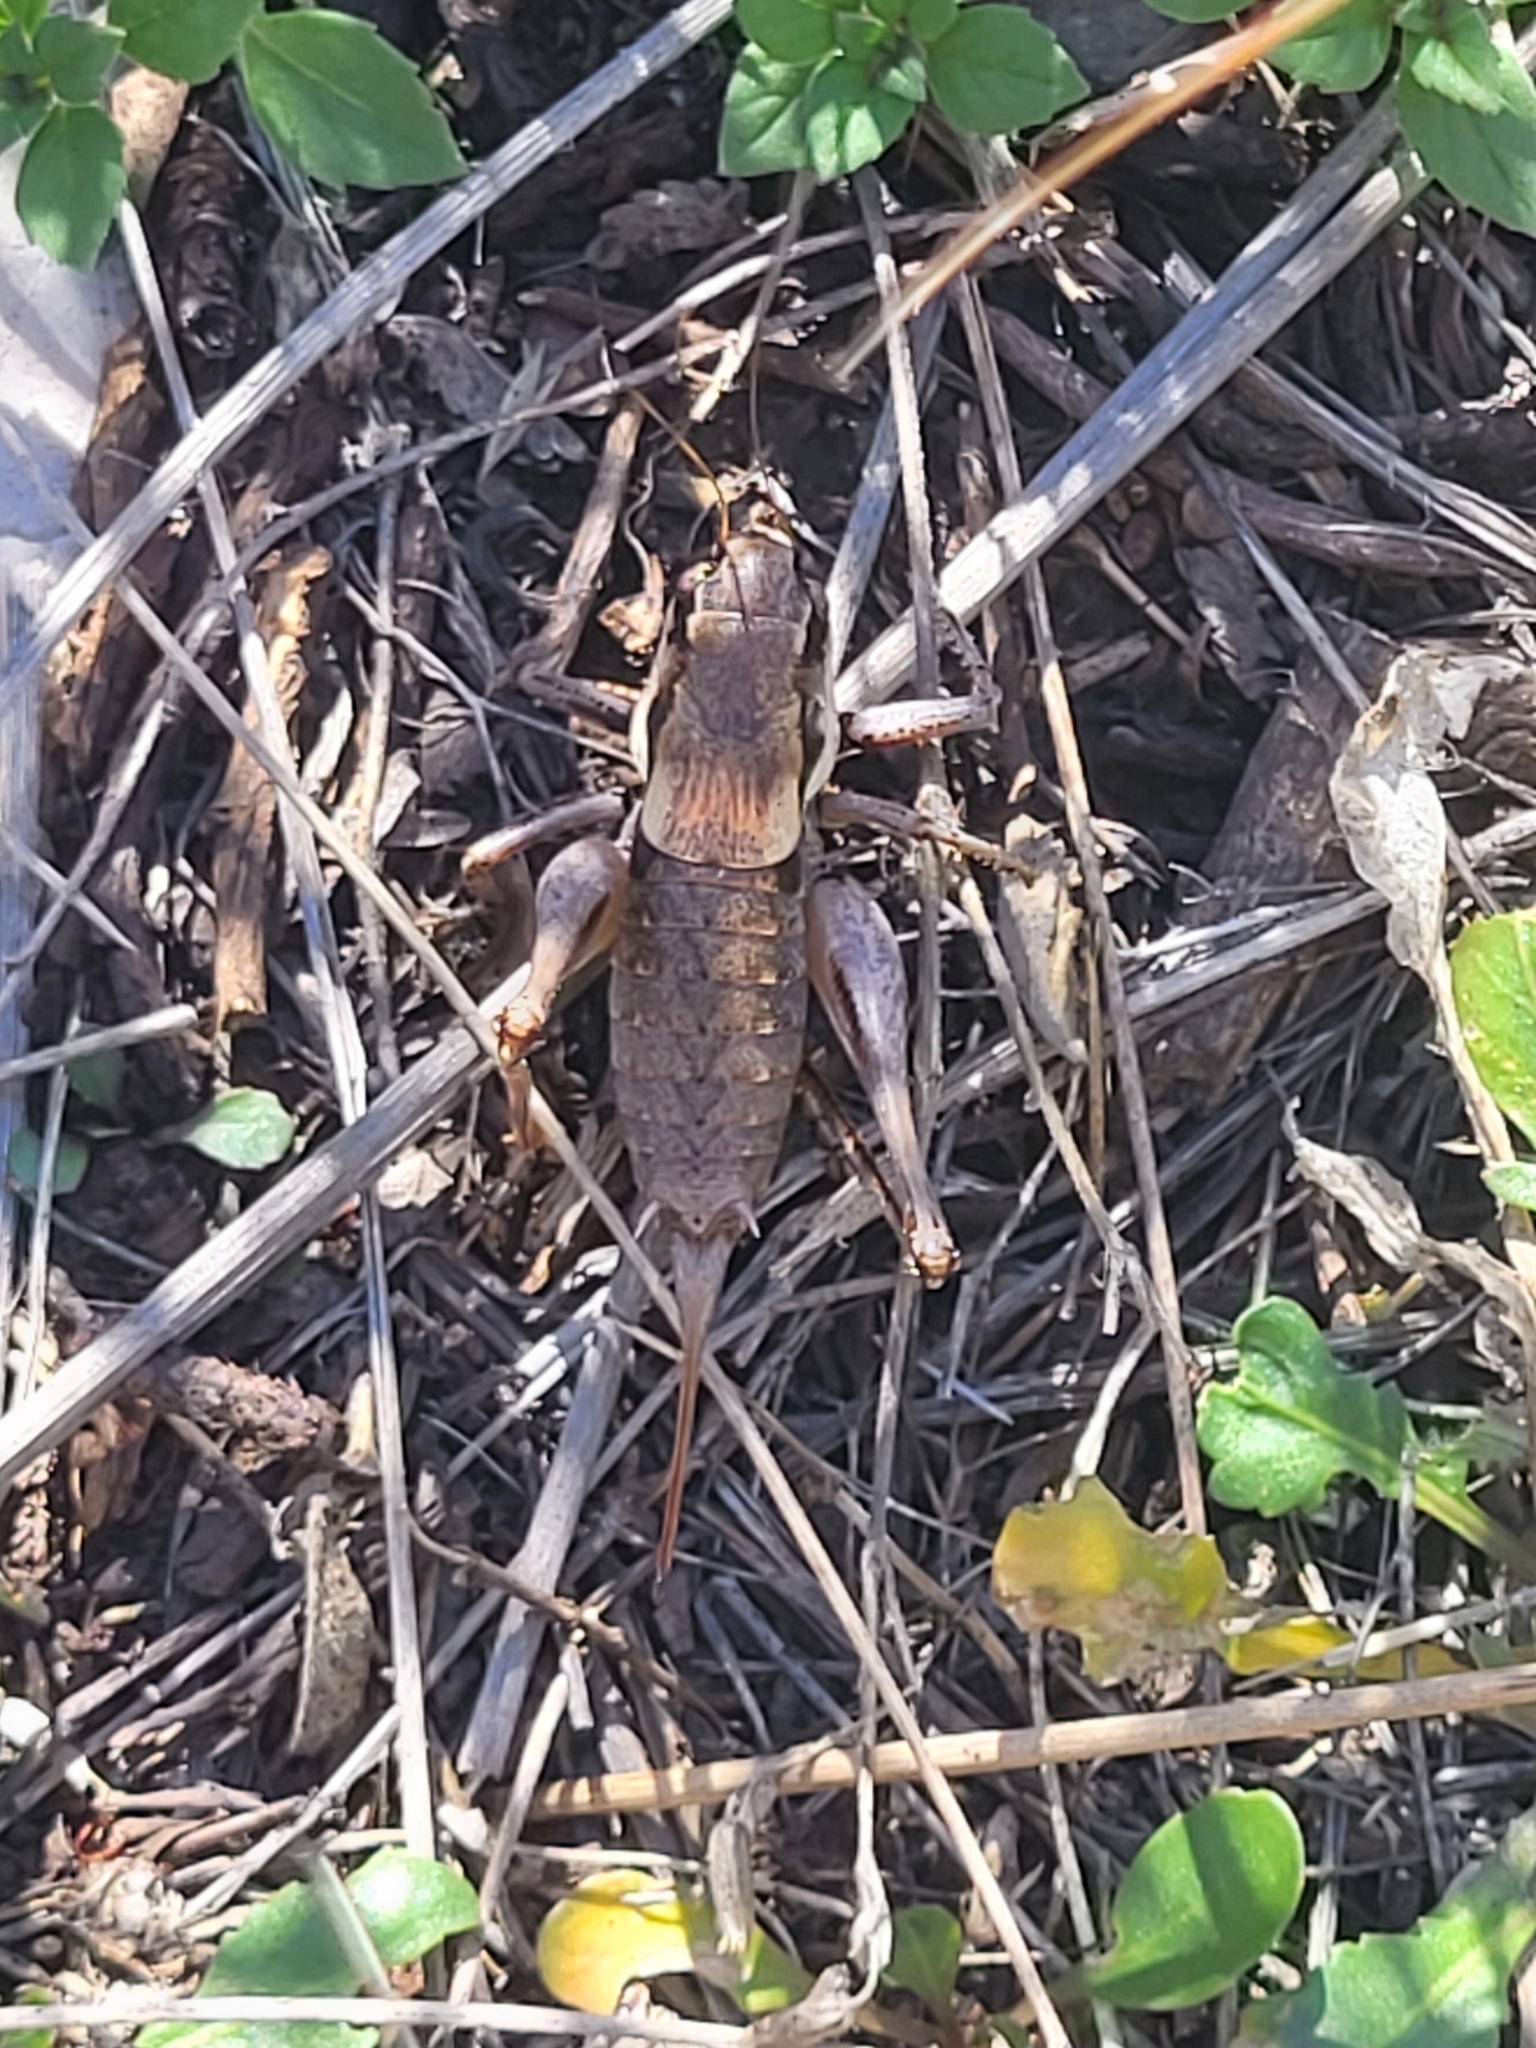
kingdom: Animalia
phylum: Arthropoda
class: Insecta
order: Orthoptera
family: Tettigoniidae
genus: Pholidoptera
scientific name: Pholidoptera dalmatica
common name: Dalmatian dark bush-cricket
